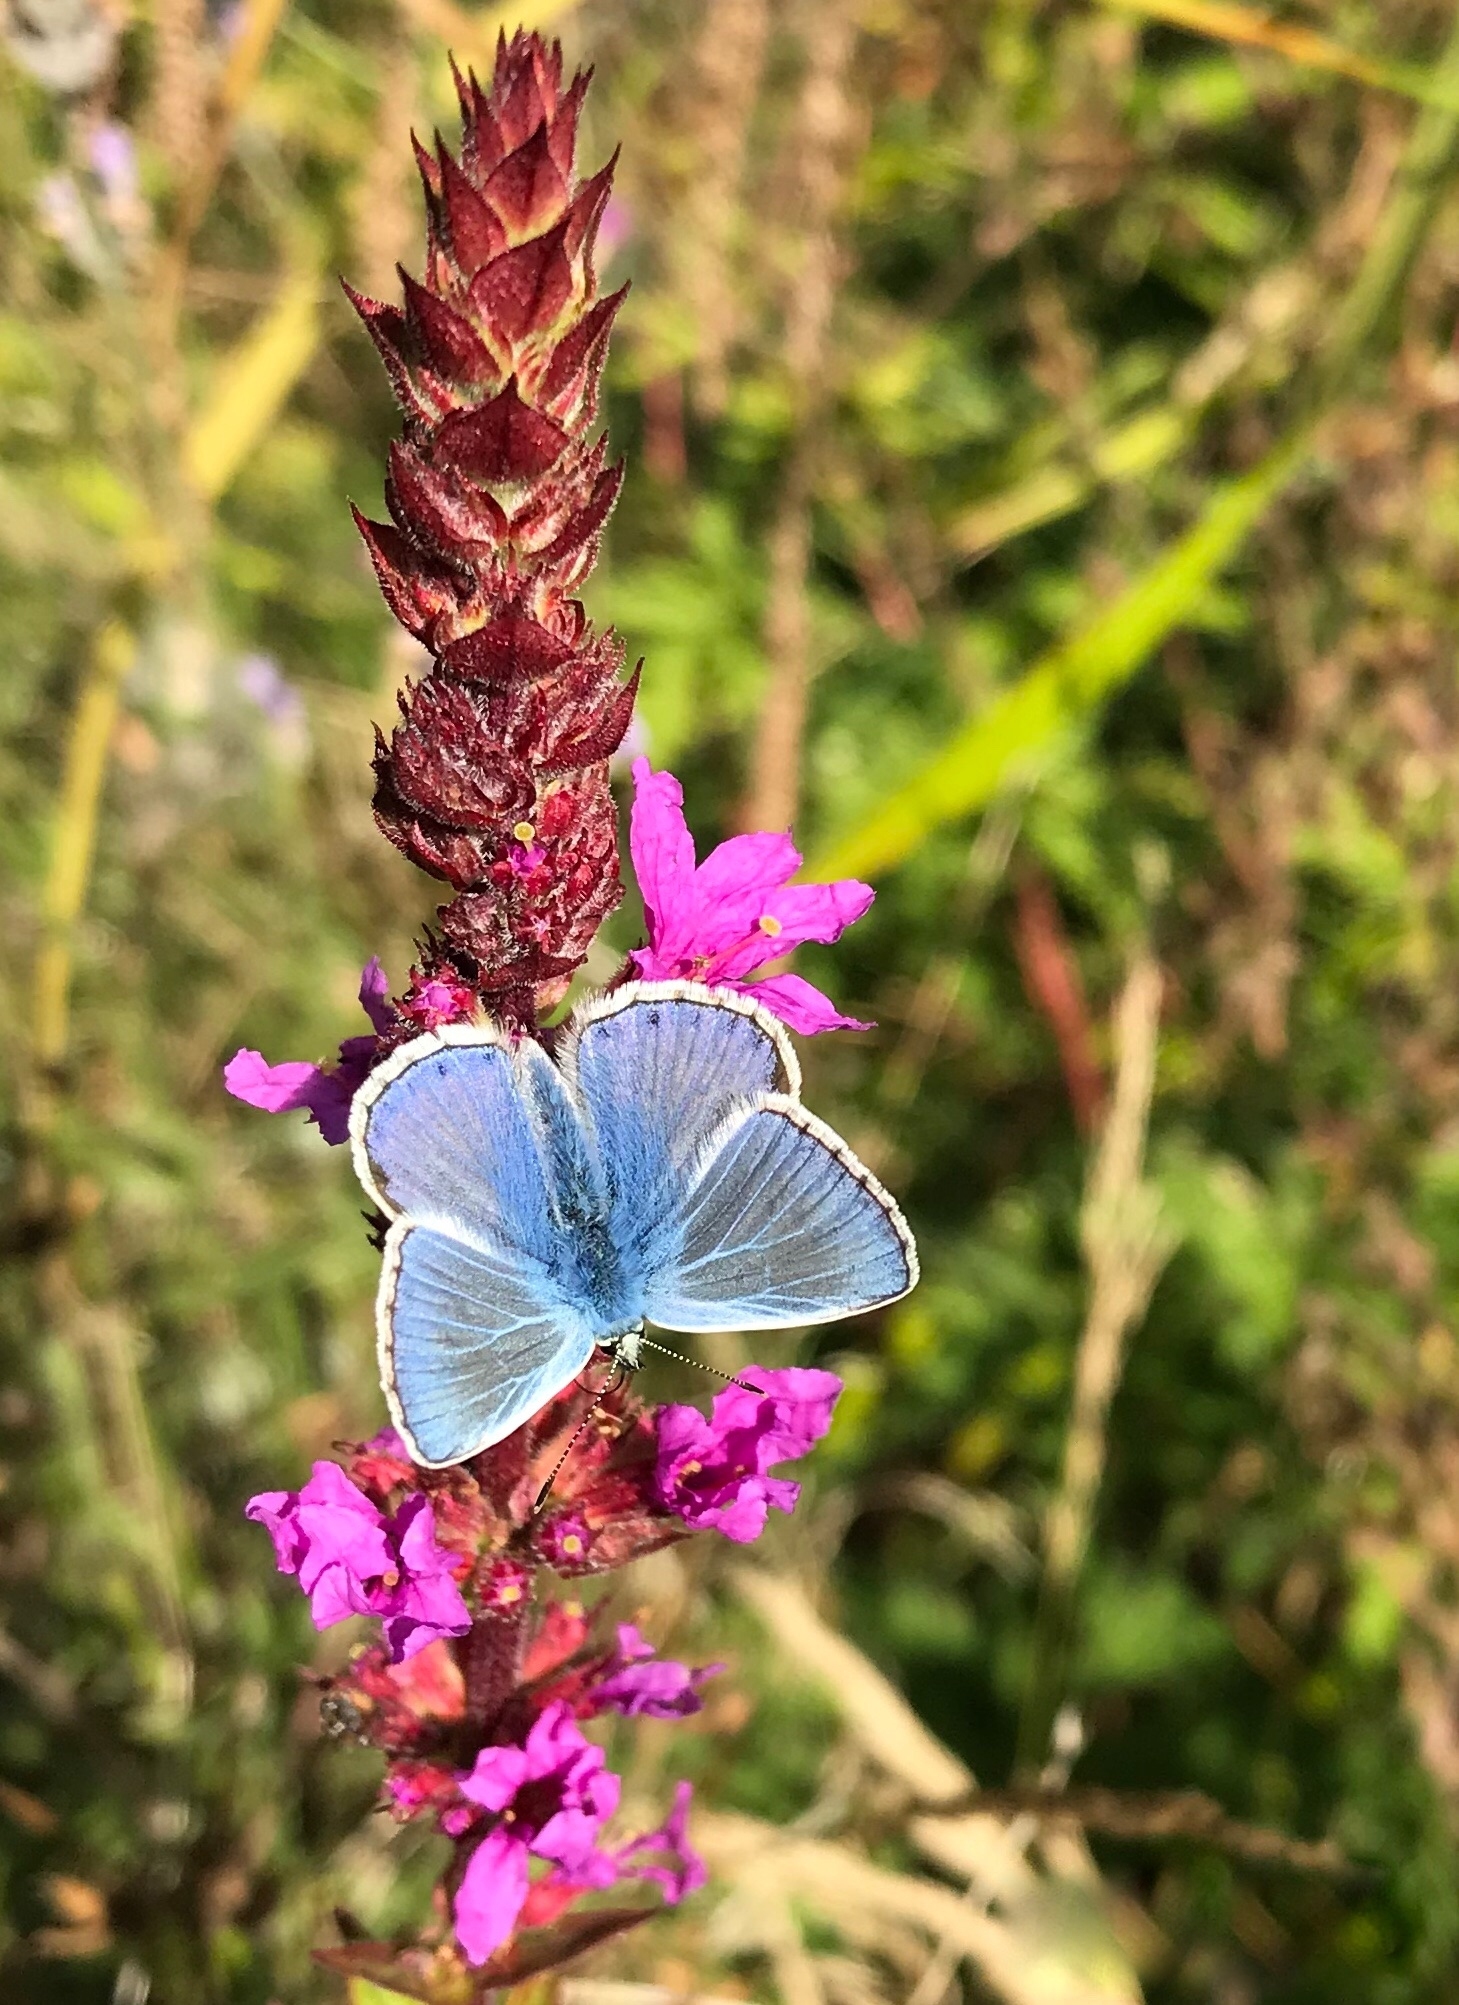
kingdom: Animalia
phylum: Arthropoda
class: Insecta
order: Lepidoptera
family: Lycaenidae
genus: Polyommatus
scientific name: Polyommatus icarus
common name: Common blue
